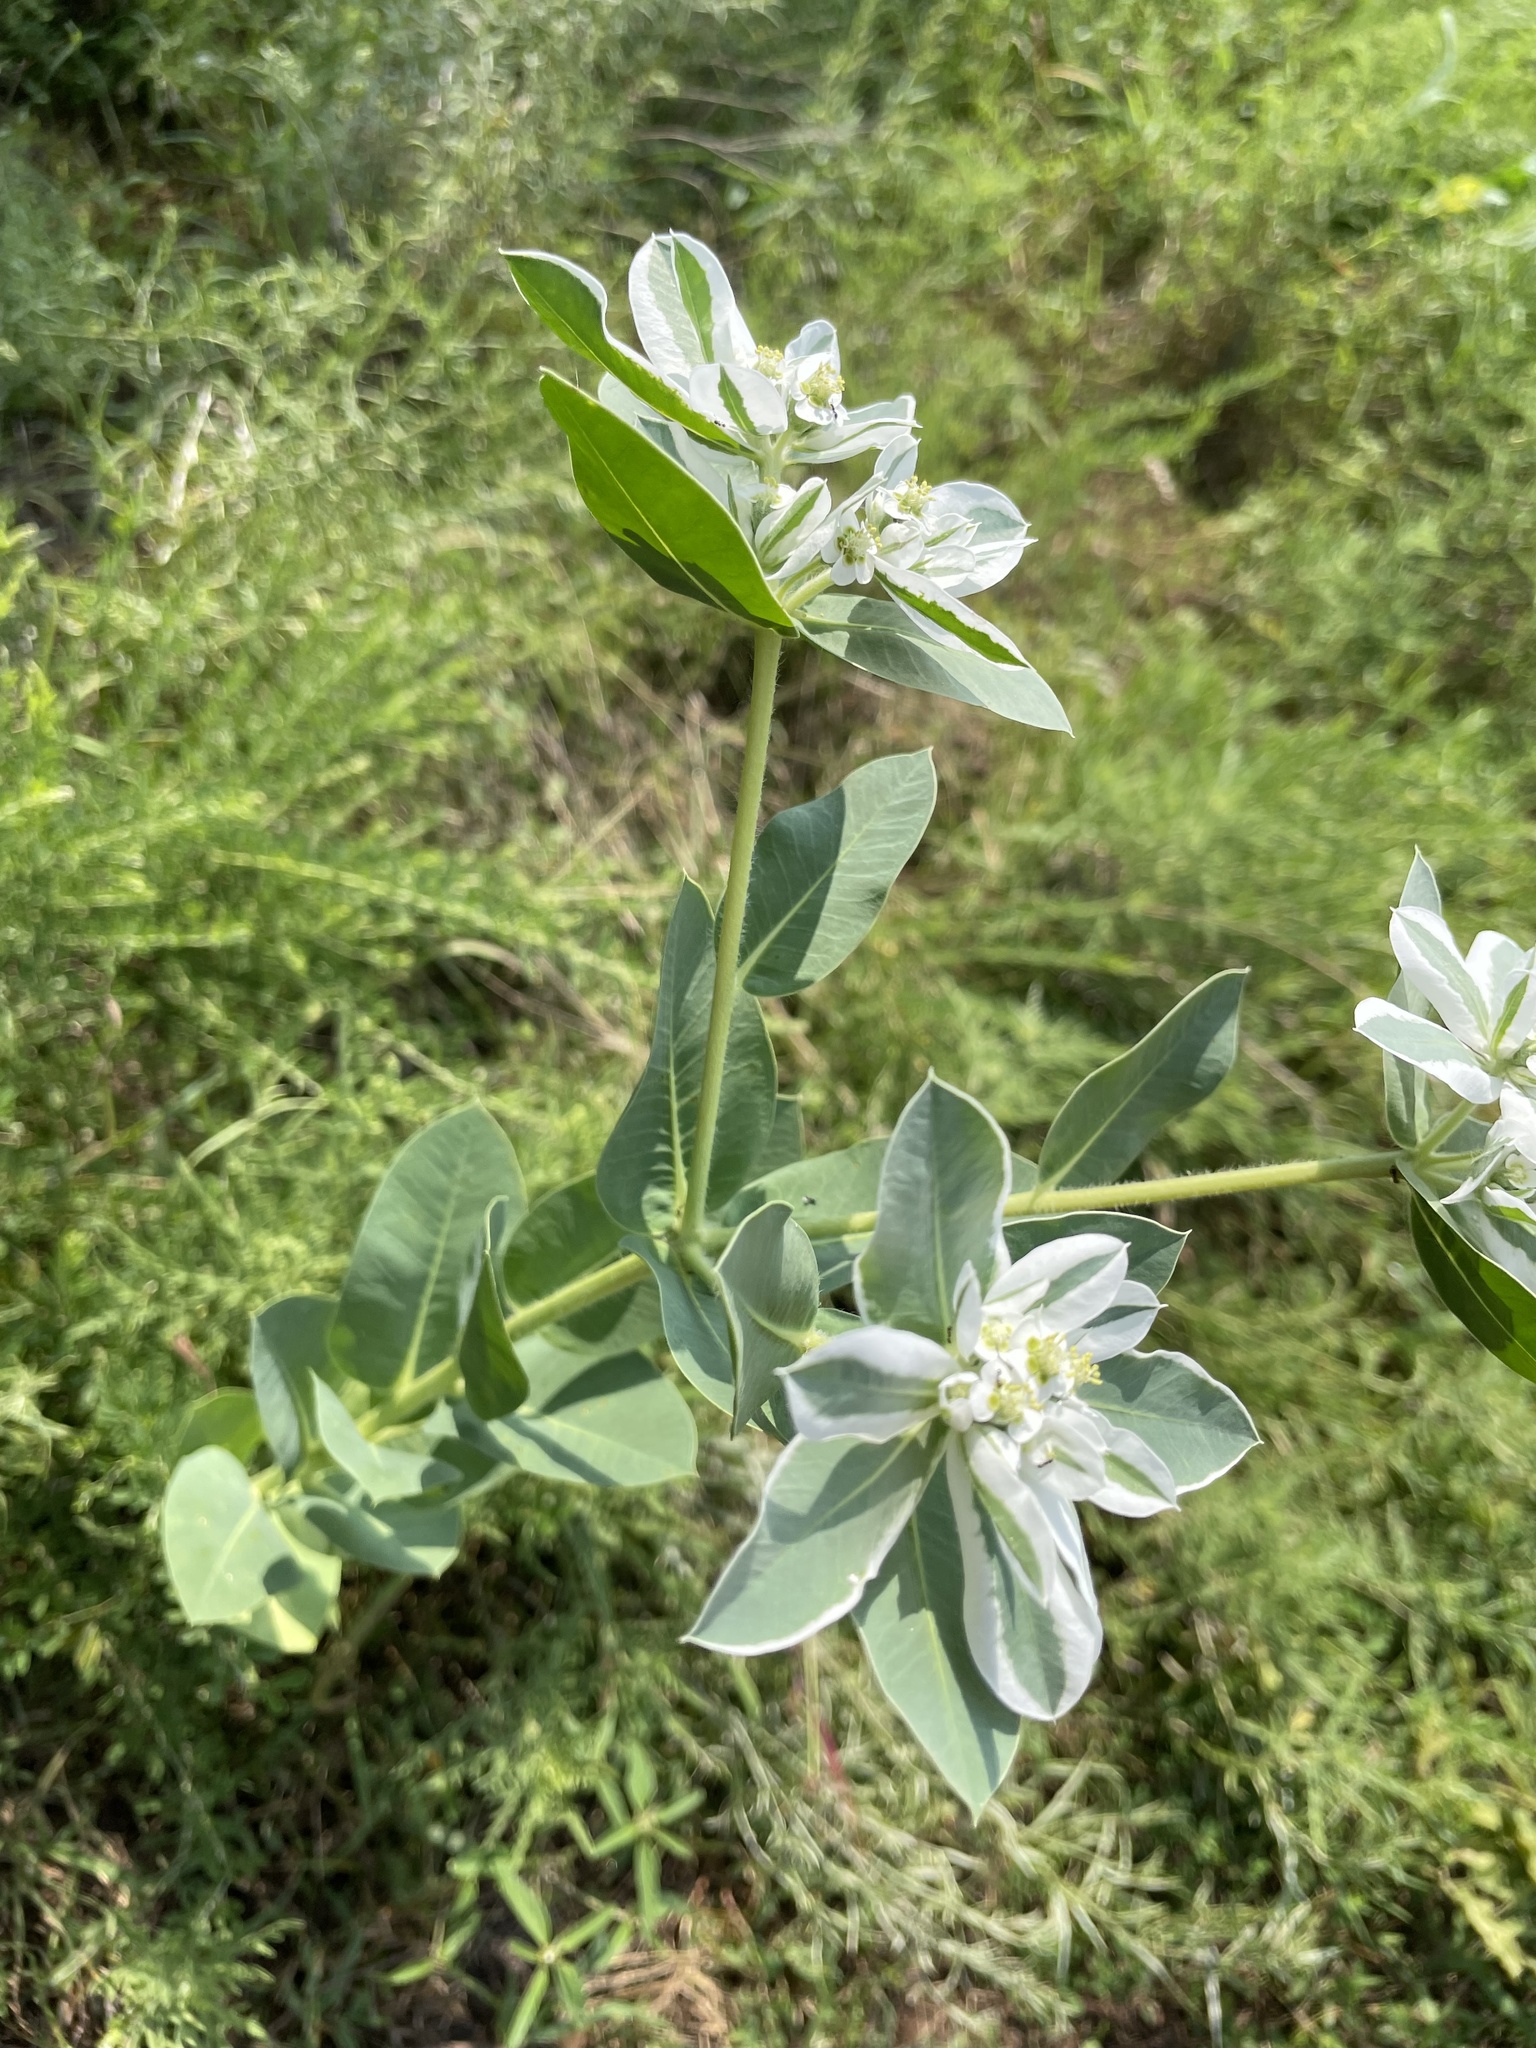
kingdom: Plantae
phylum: Tracheophyta
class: Magnoliopsida
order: Malpighiales
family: Euphorbiaceae
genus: Euphorbia
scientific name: Euphorbia marginata
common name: Ghostweed
